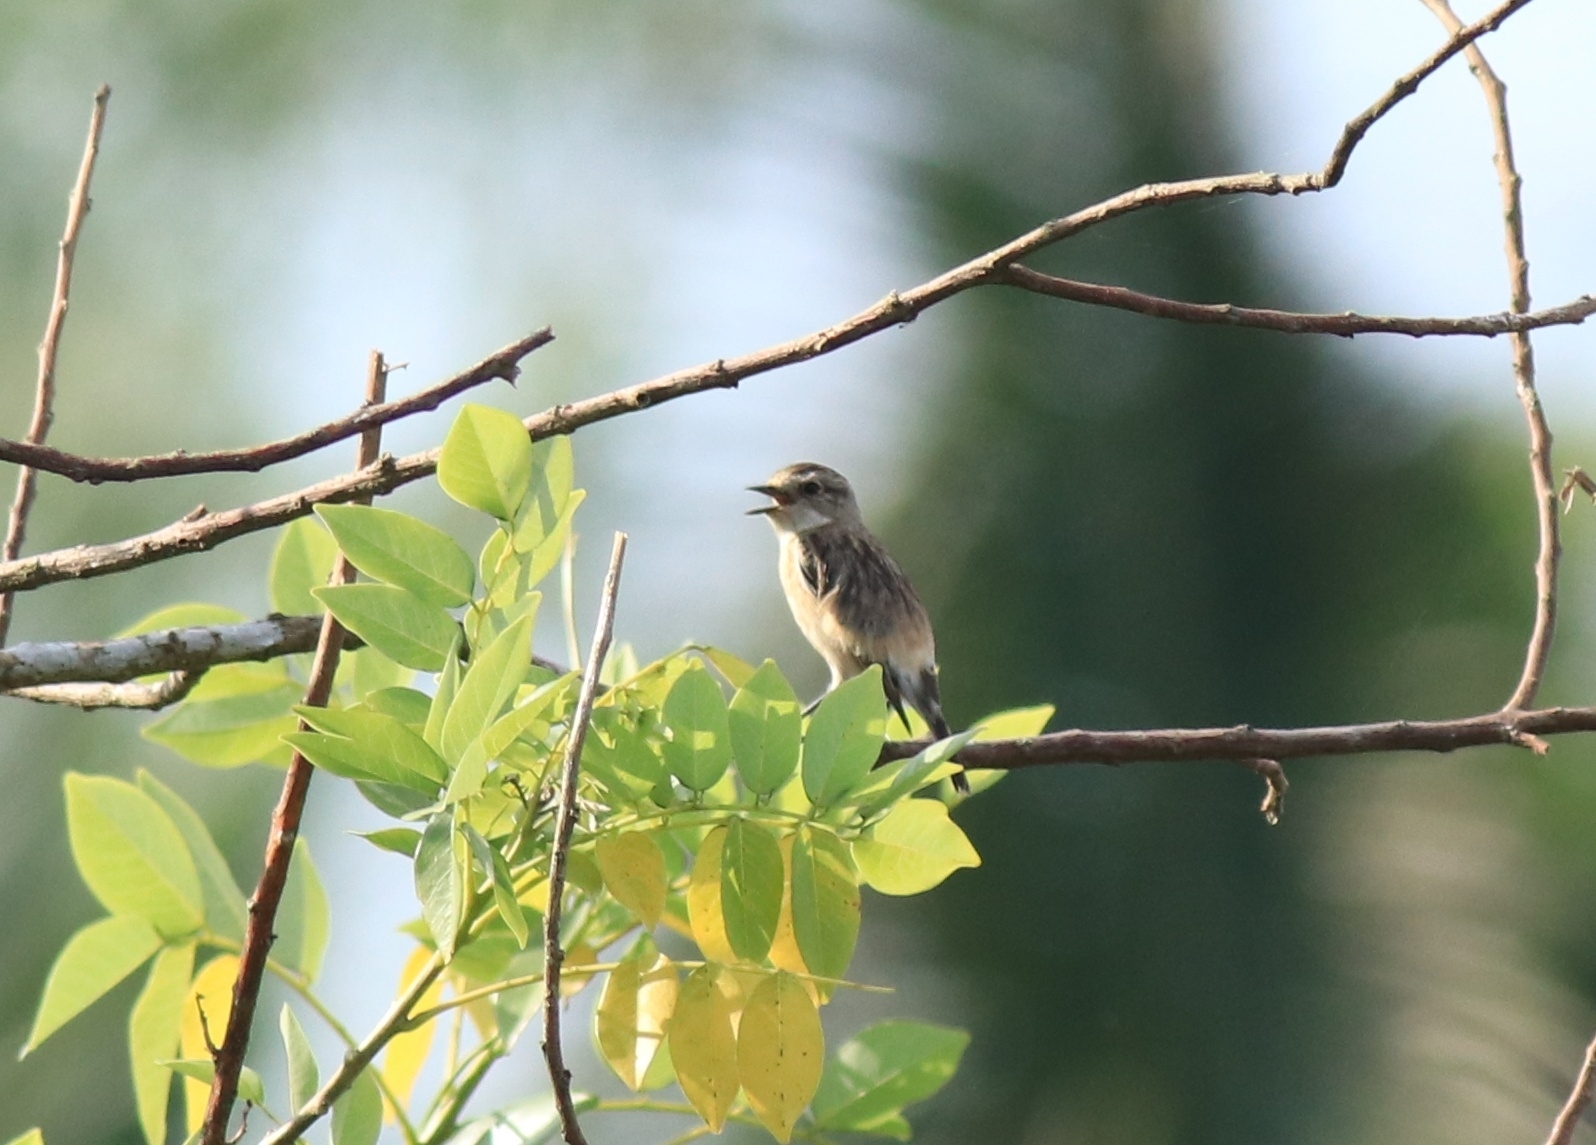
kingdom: Animalia
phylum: Chordata
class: Aves
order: Passeriformes
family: Muscicapidae
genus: Saxicola
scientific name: Saxicola maurus
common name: Siberian stonechat
